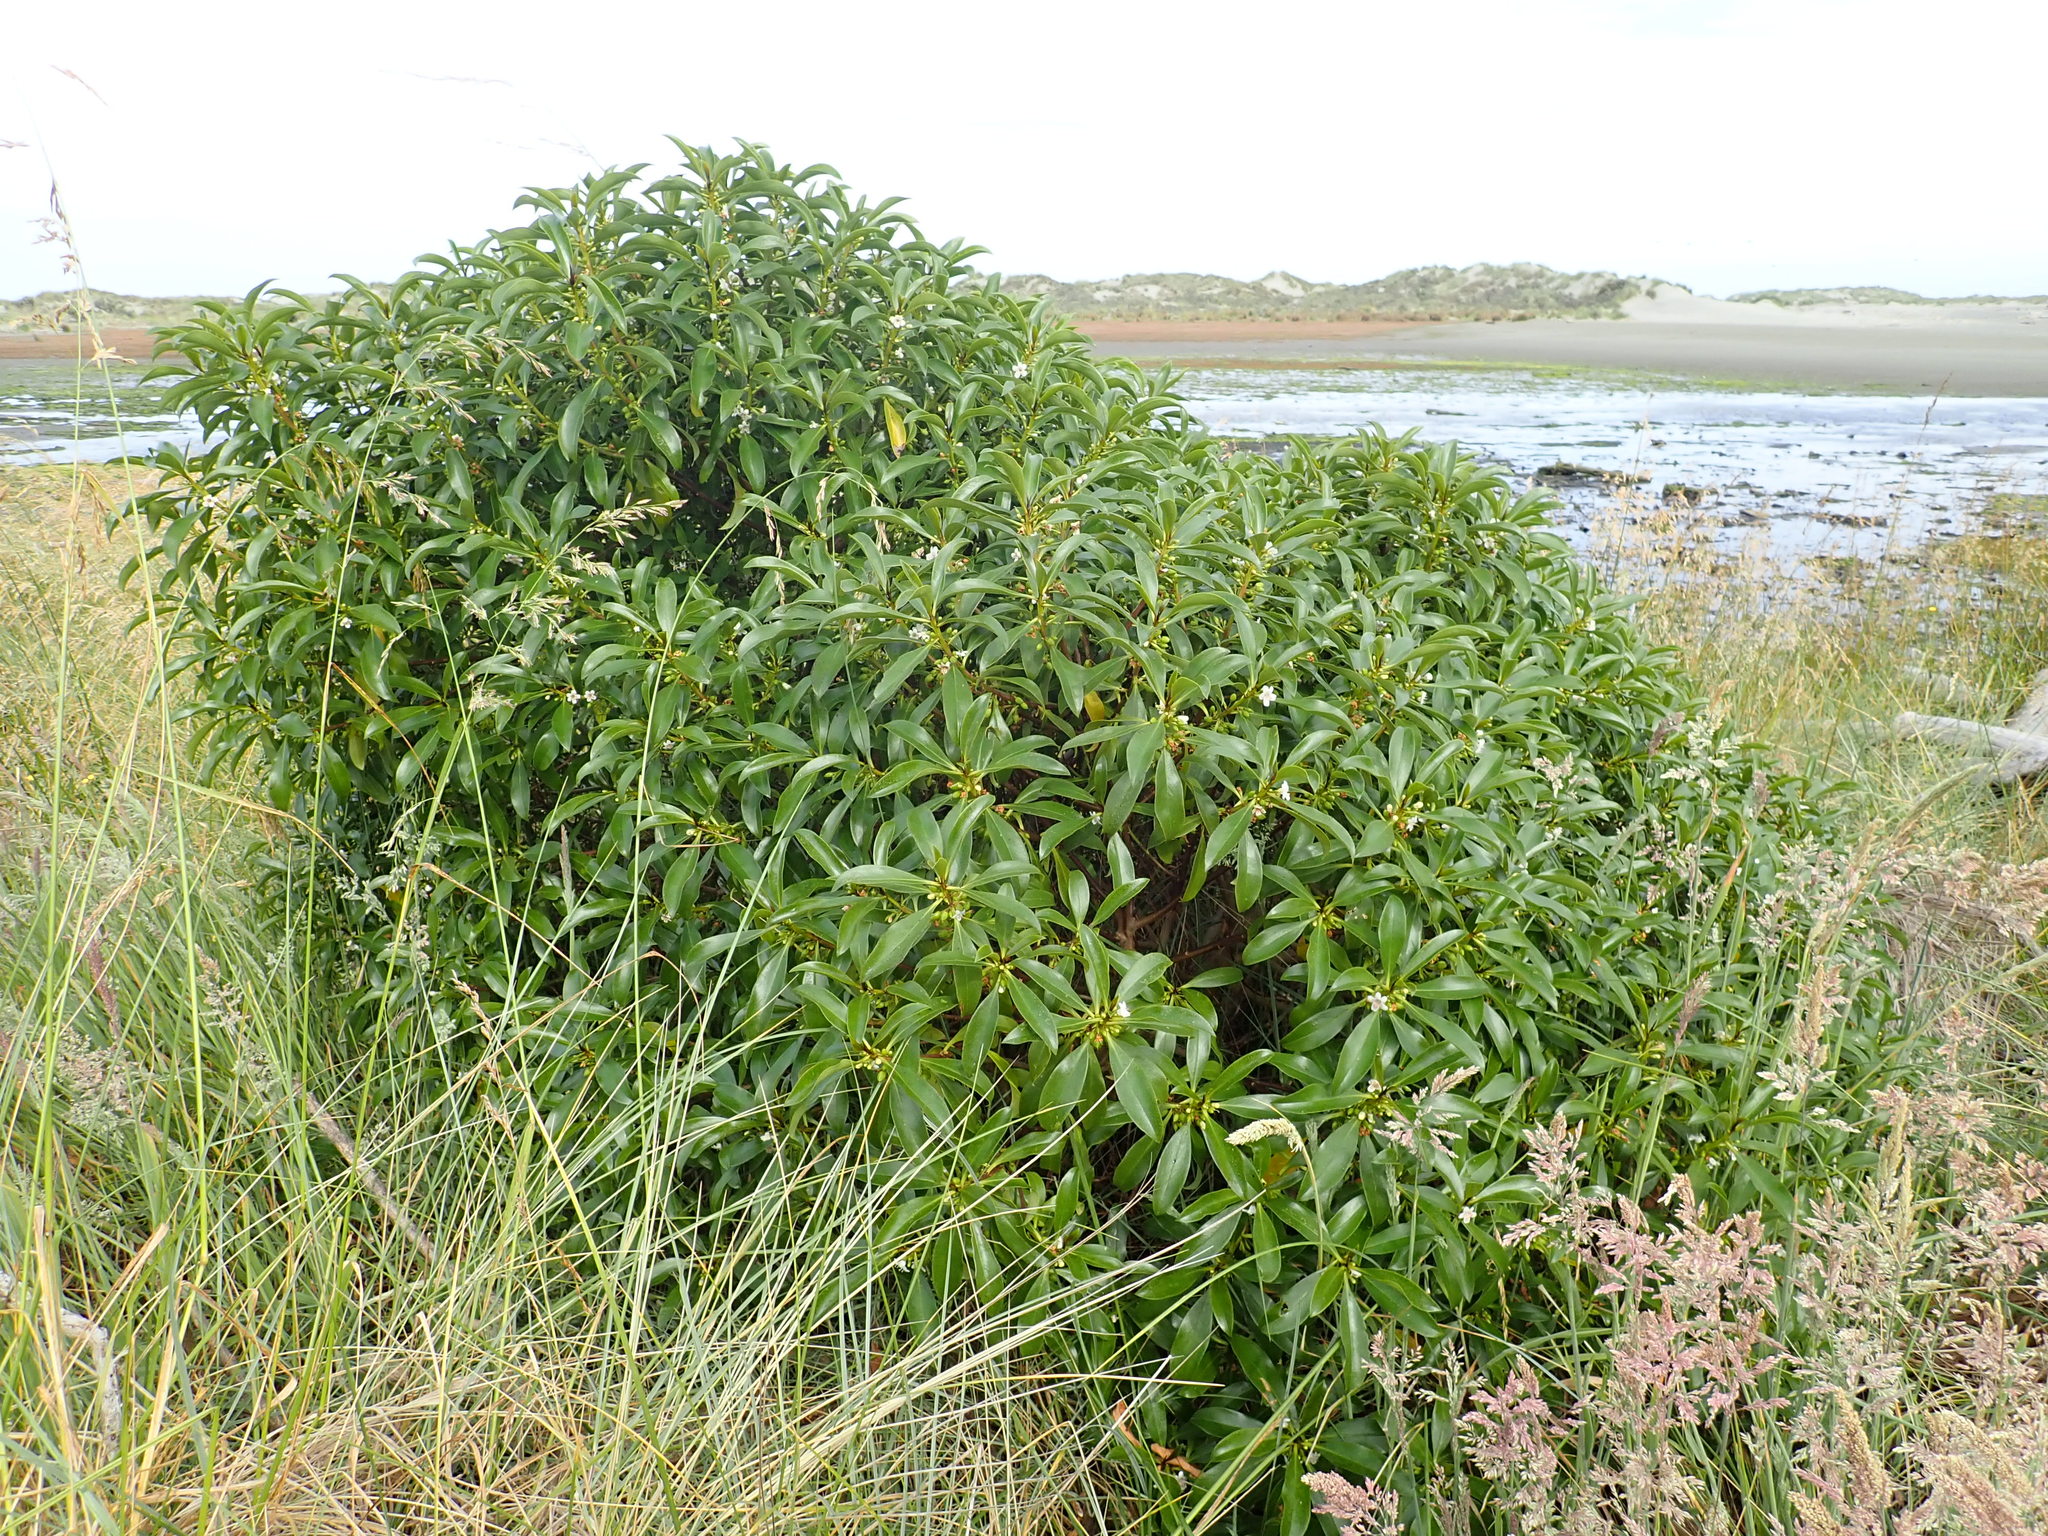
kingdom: Plantae
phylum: Tracheophyta
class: Magnoliopsida
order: Lamiales
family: Scrophulariaceae
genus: Myoporum
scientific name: Myoporum laetum
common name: Ngaio tree
